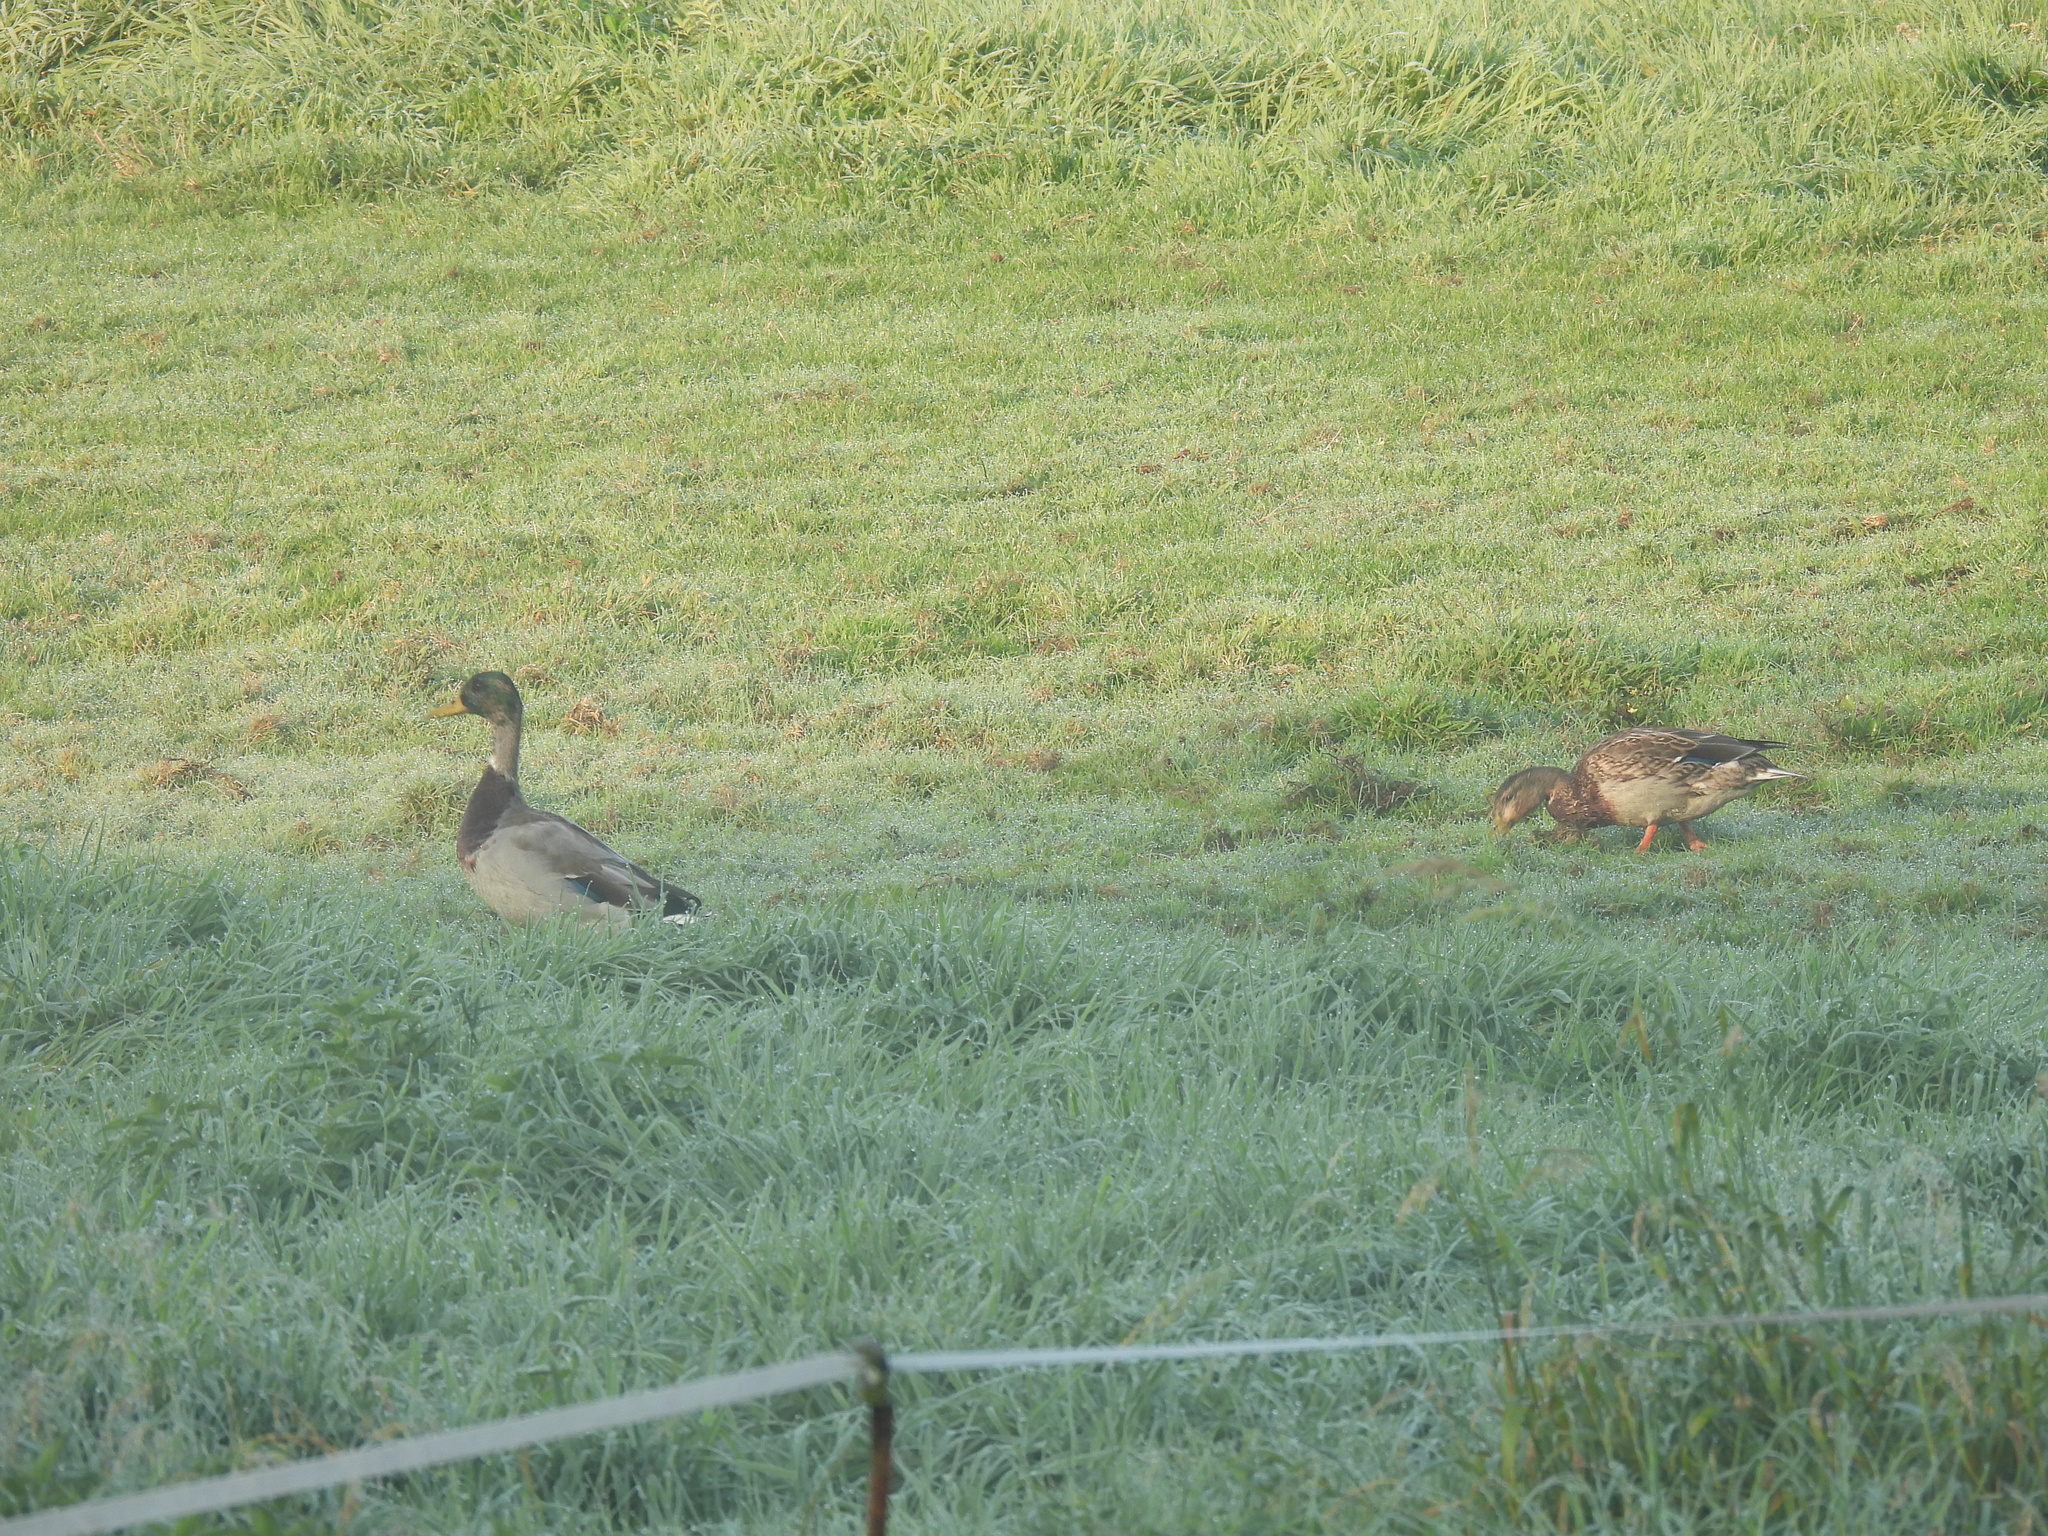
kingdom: Animalia
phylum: Chordata
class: Aves
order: Anseriformes
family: Anatidae
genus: Anas
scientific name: Anas platyrhynchos
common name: Mallard
